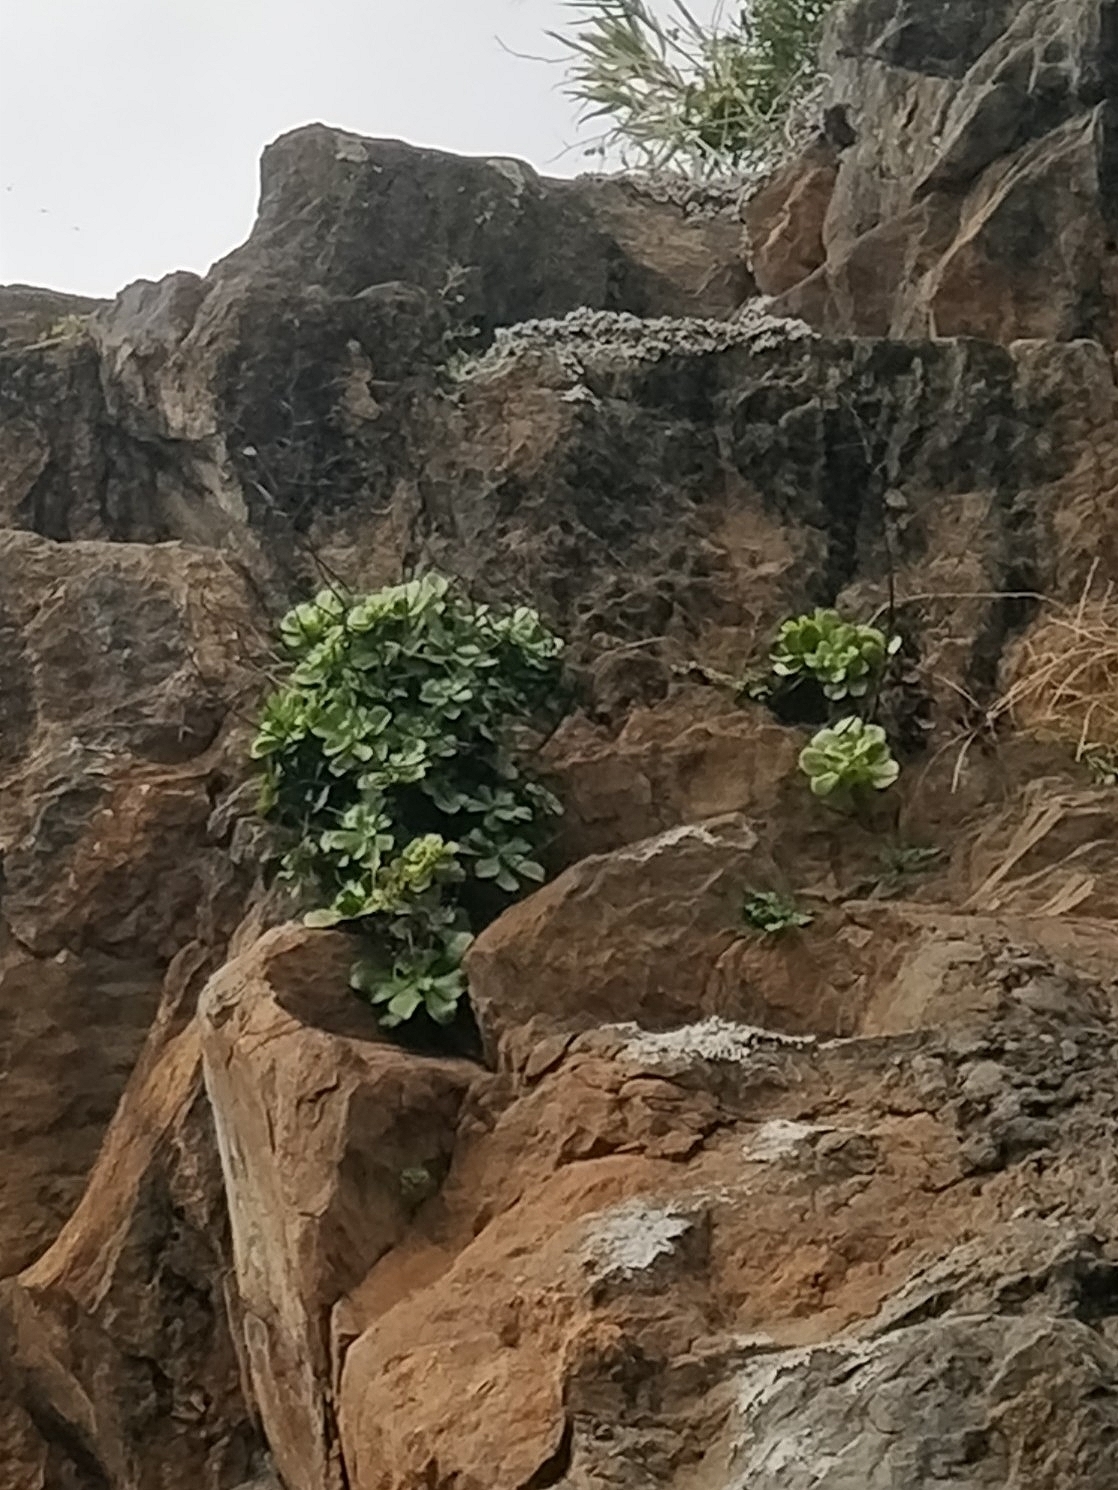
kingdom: Plantae
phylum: Tracheophyta
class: Magnoliopsida
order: Saxifragales
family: Crassulaceae
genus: Aeonium
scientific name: Aeonium glutinosum
